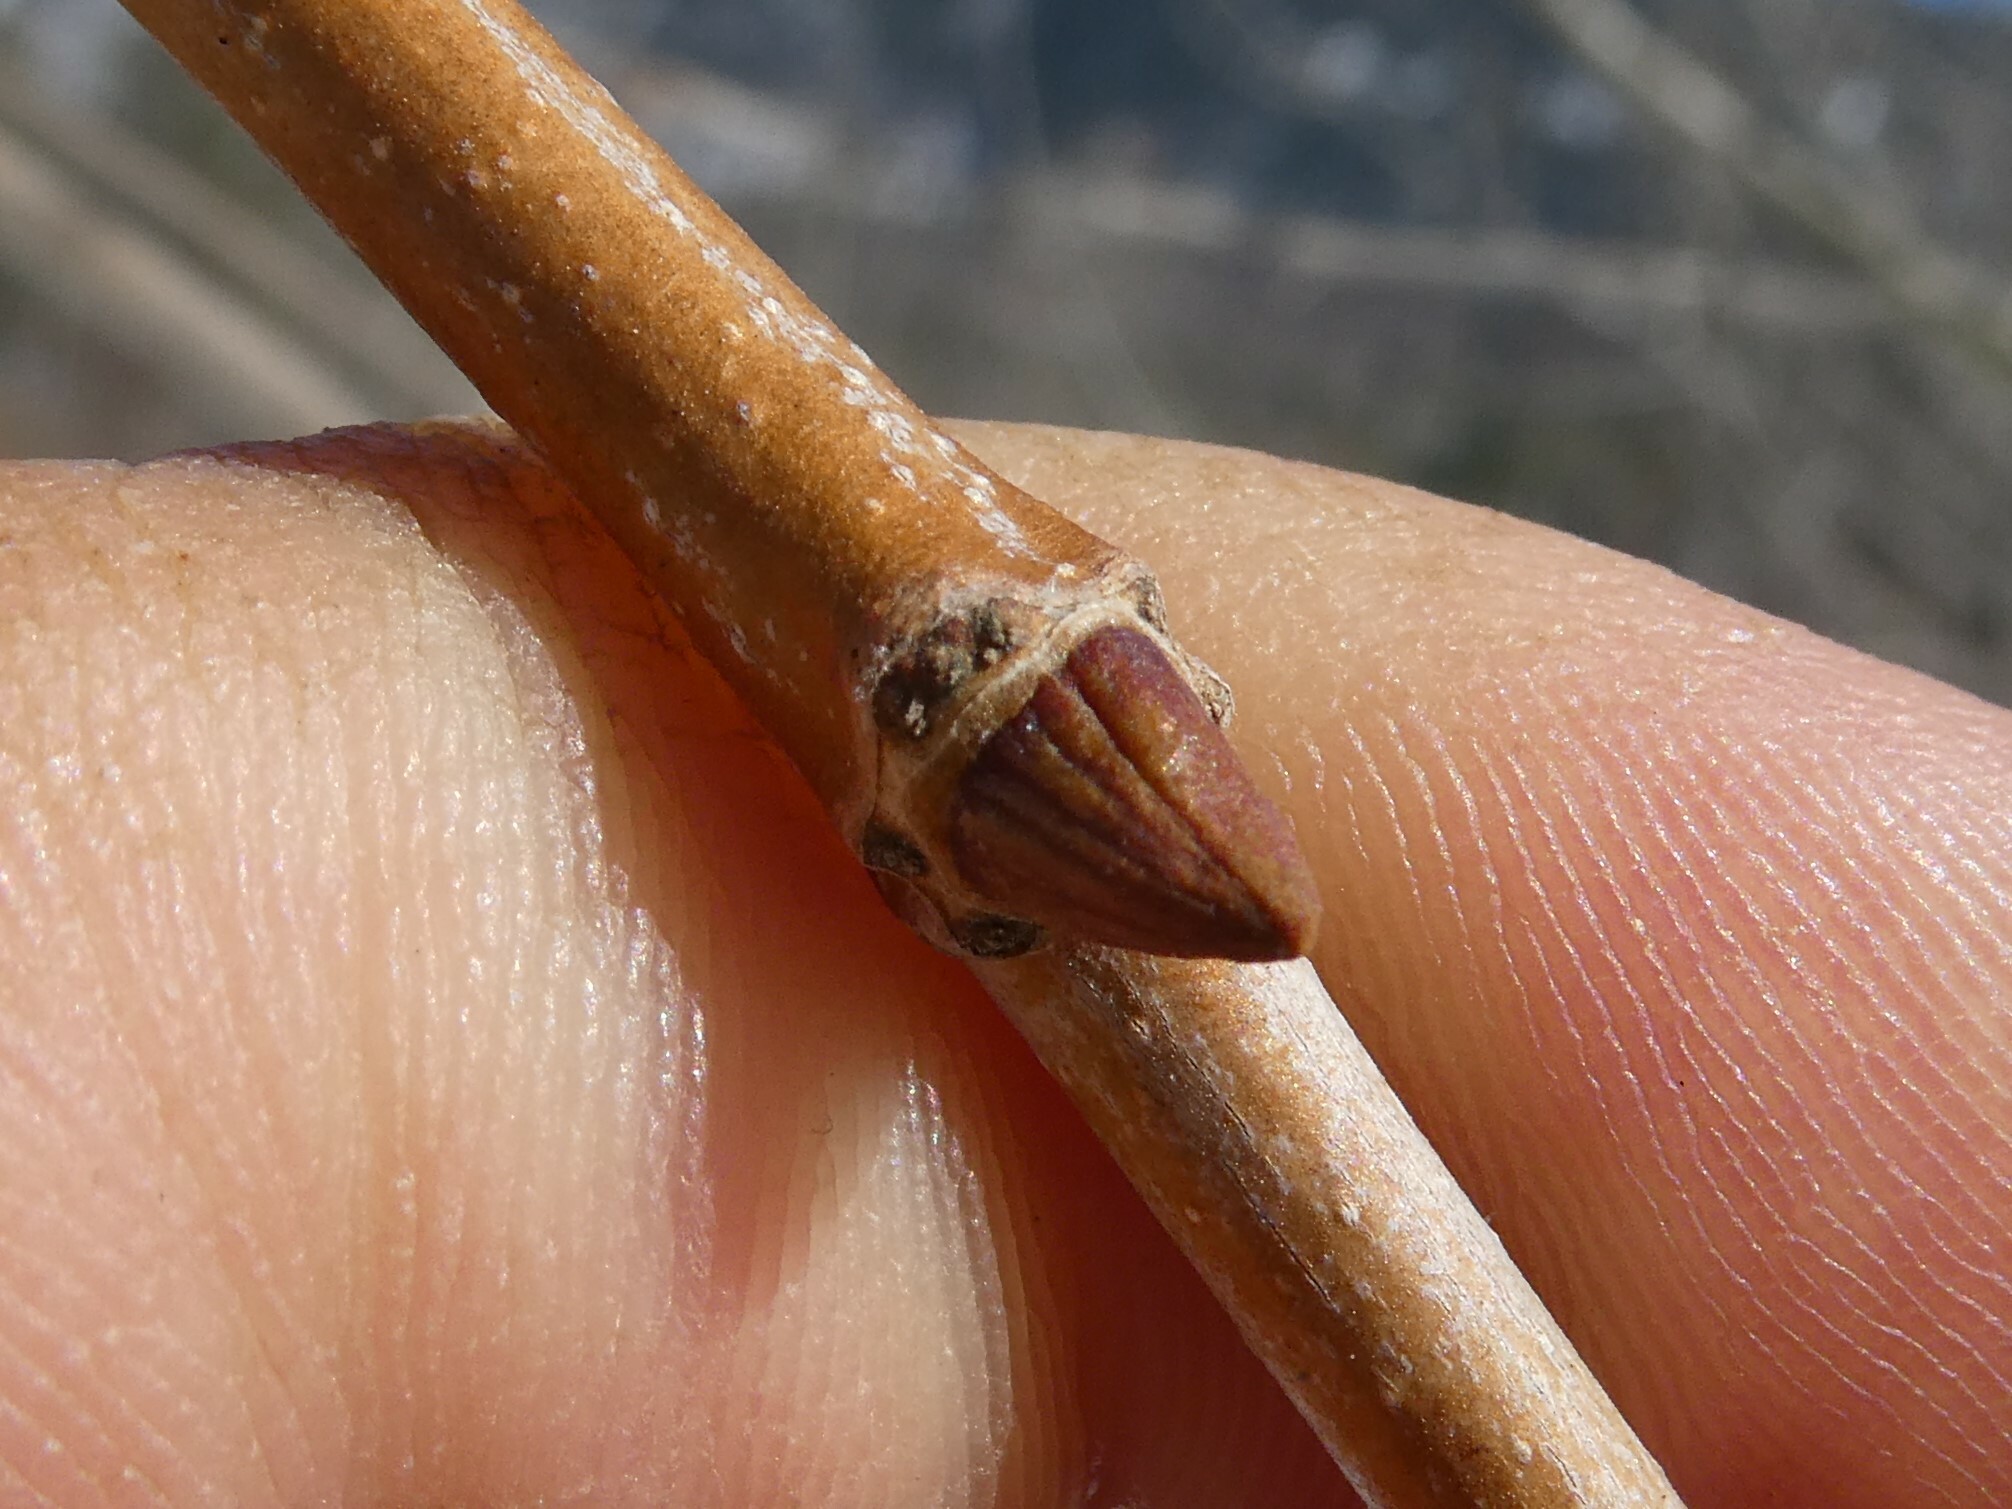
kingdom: Plantae
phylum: Tracheophyta
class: Magnoliopsida
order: Proteales
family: Platanaceae
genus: Platanus
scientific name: Platanus occidentalis
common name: American sycamore
